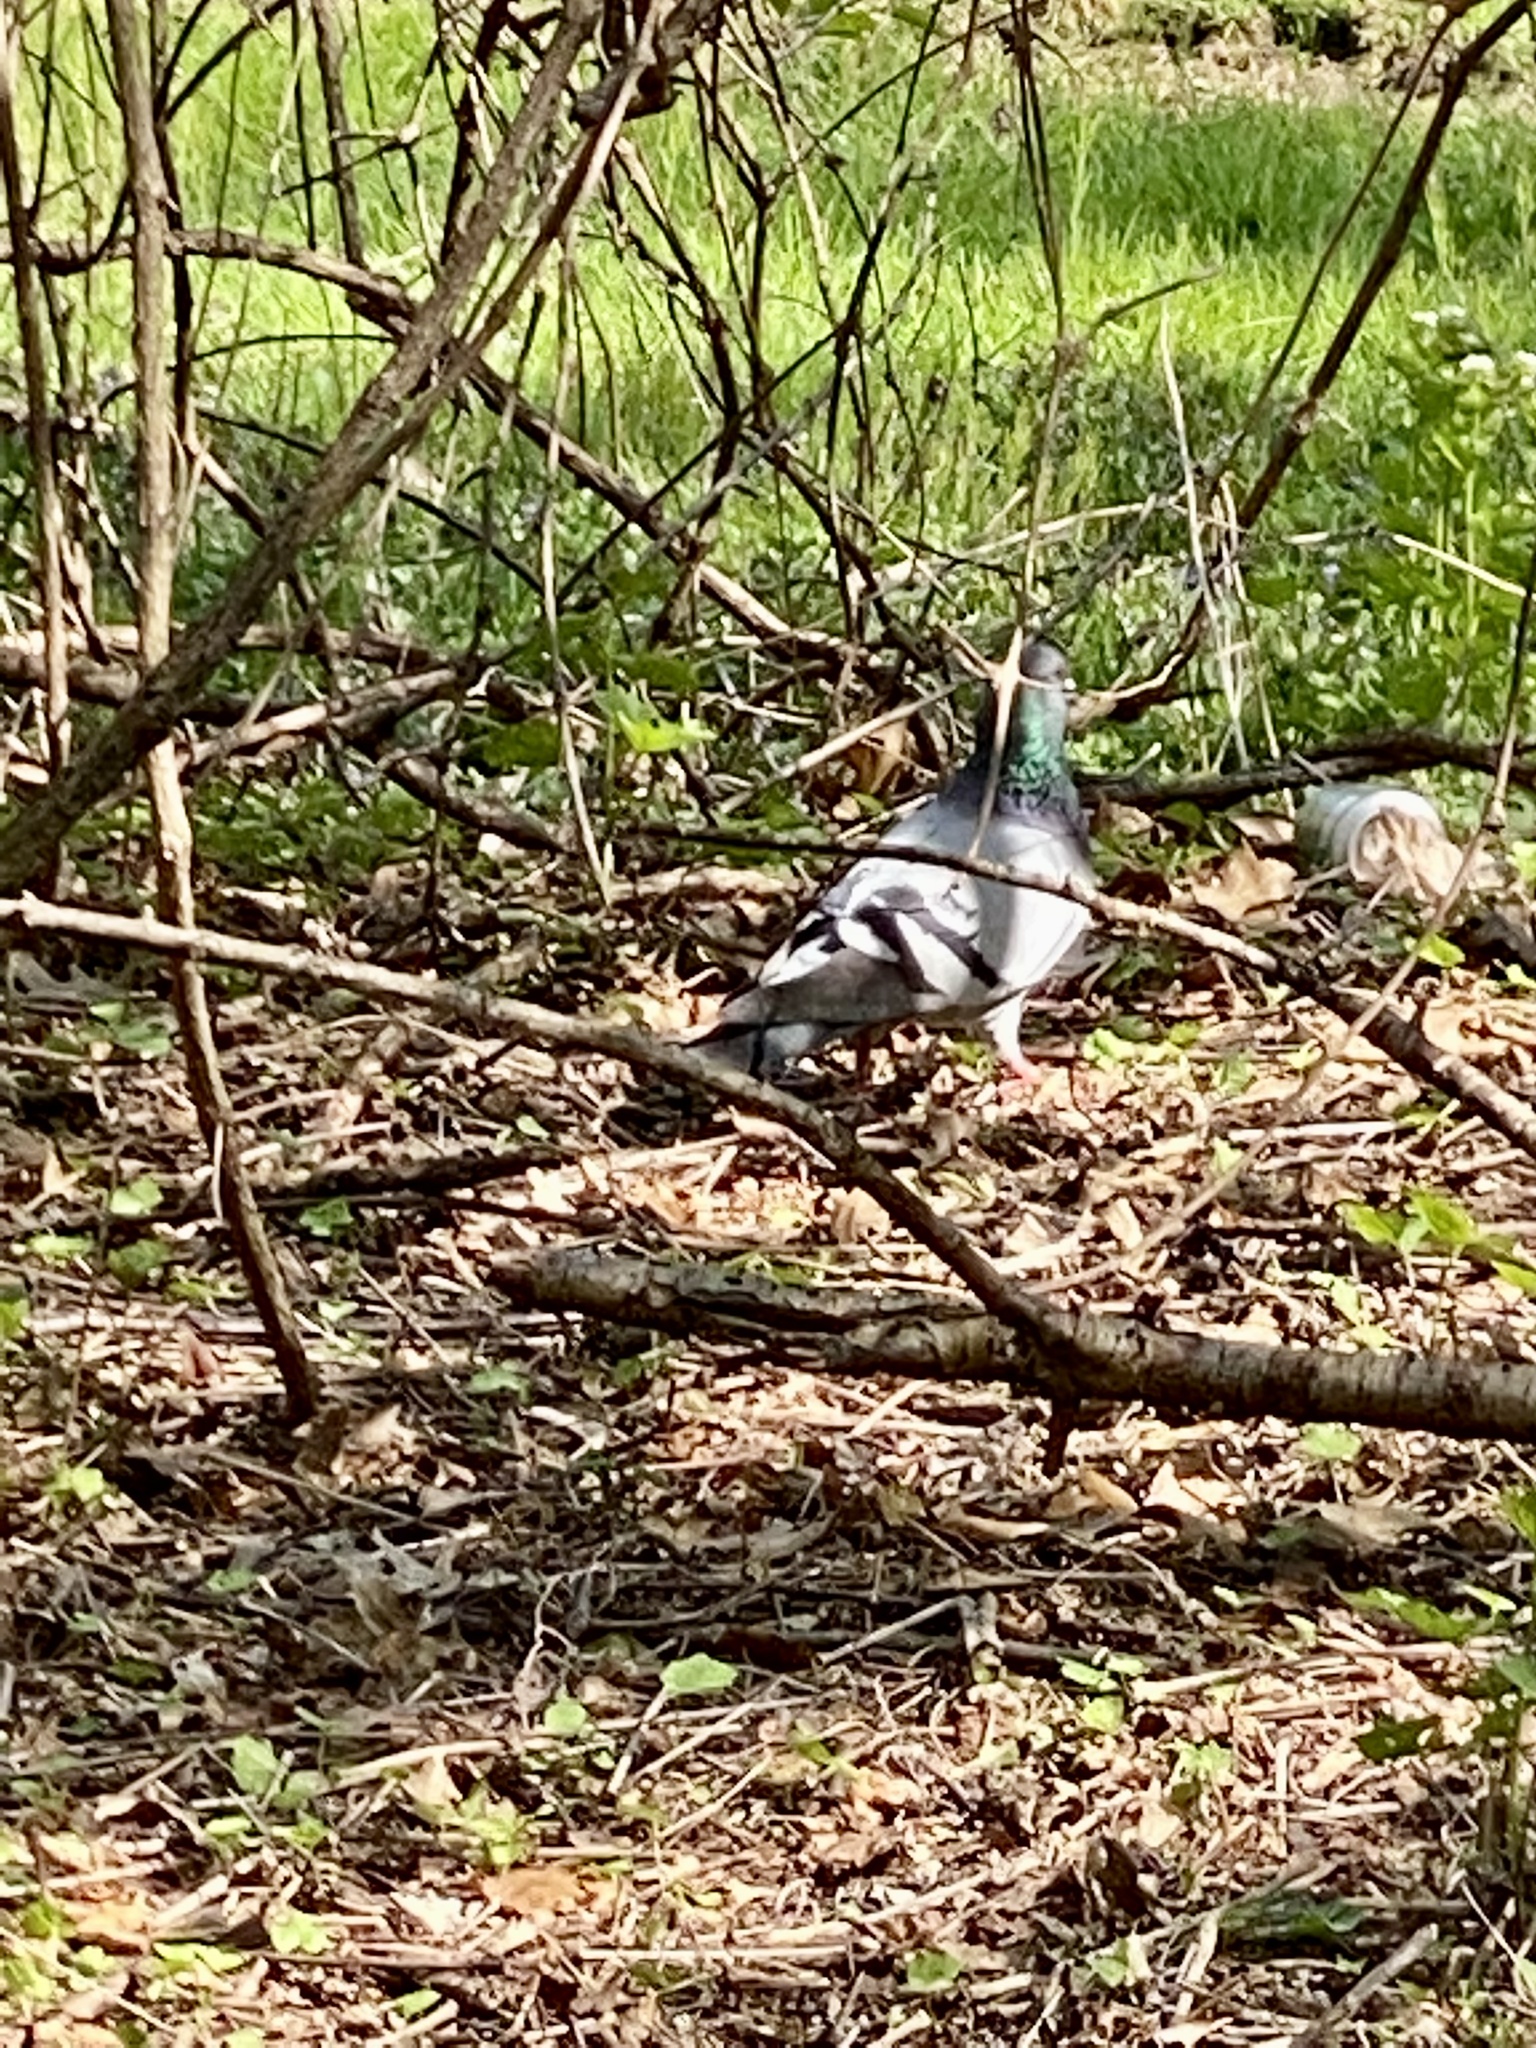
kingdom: Animalia
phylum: Chordata
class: Aves
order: Columbiformes
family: Columbidae
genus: Columba
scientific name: Columba livia
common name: Rock pigeon
